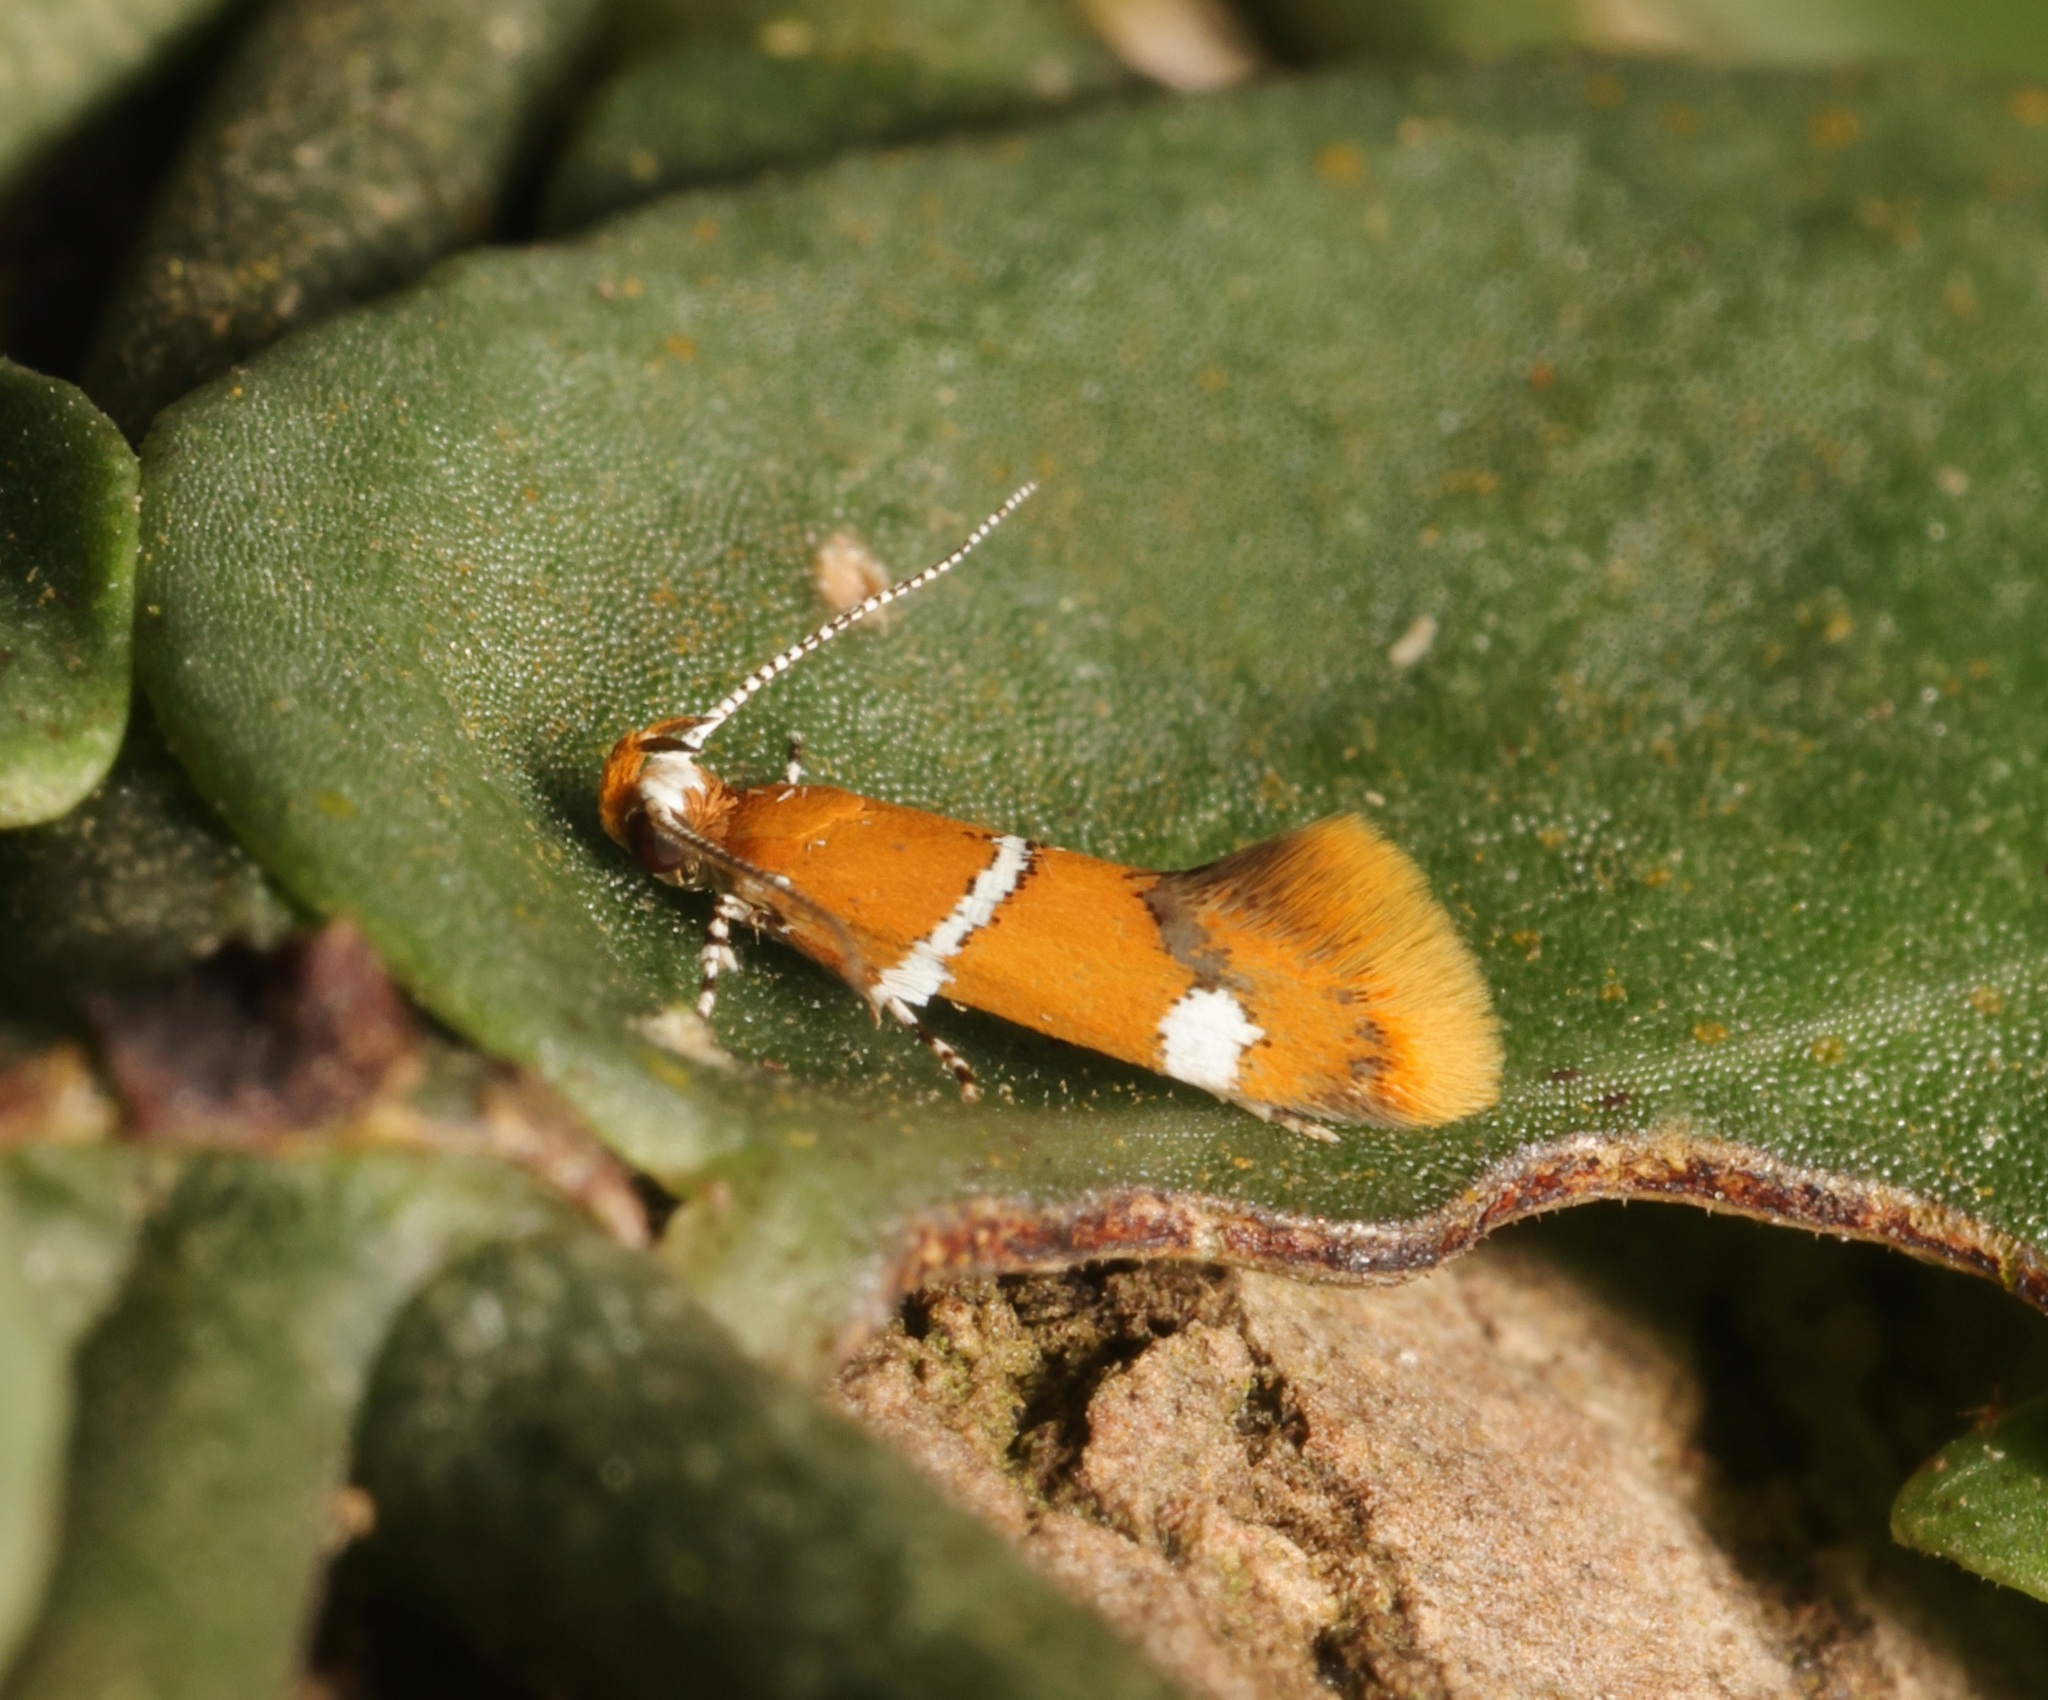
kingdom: Animalia
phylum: Arthropoda
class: Insecta
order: Lepidoptera
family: Oecophoridae
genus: Promalactis
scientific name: Promalactis albisquama
